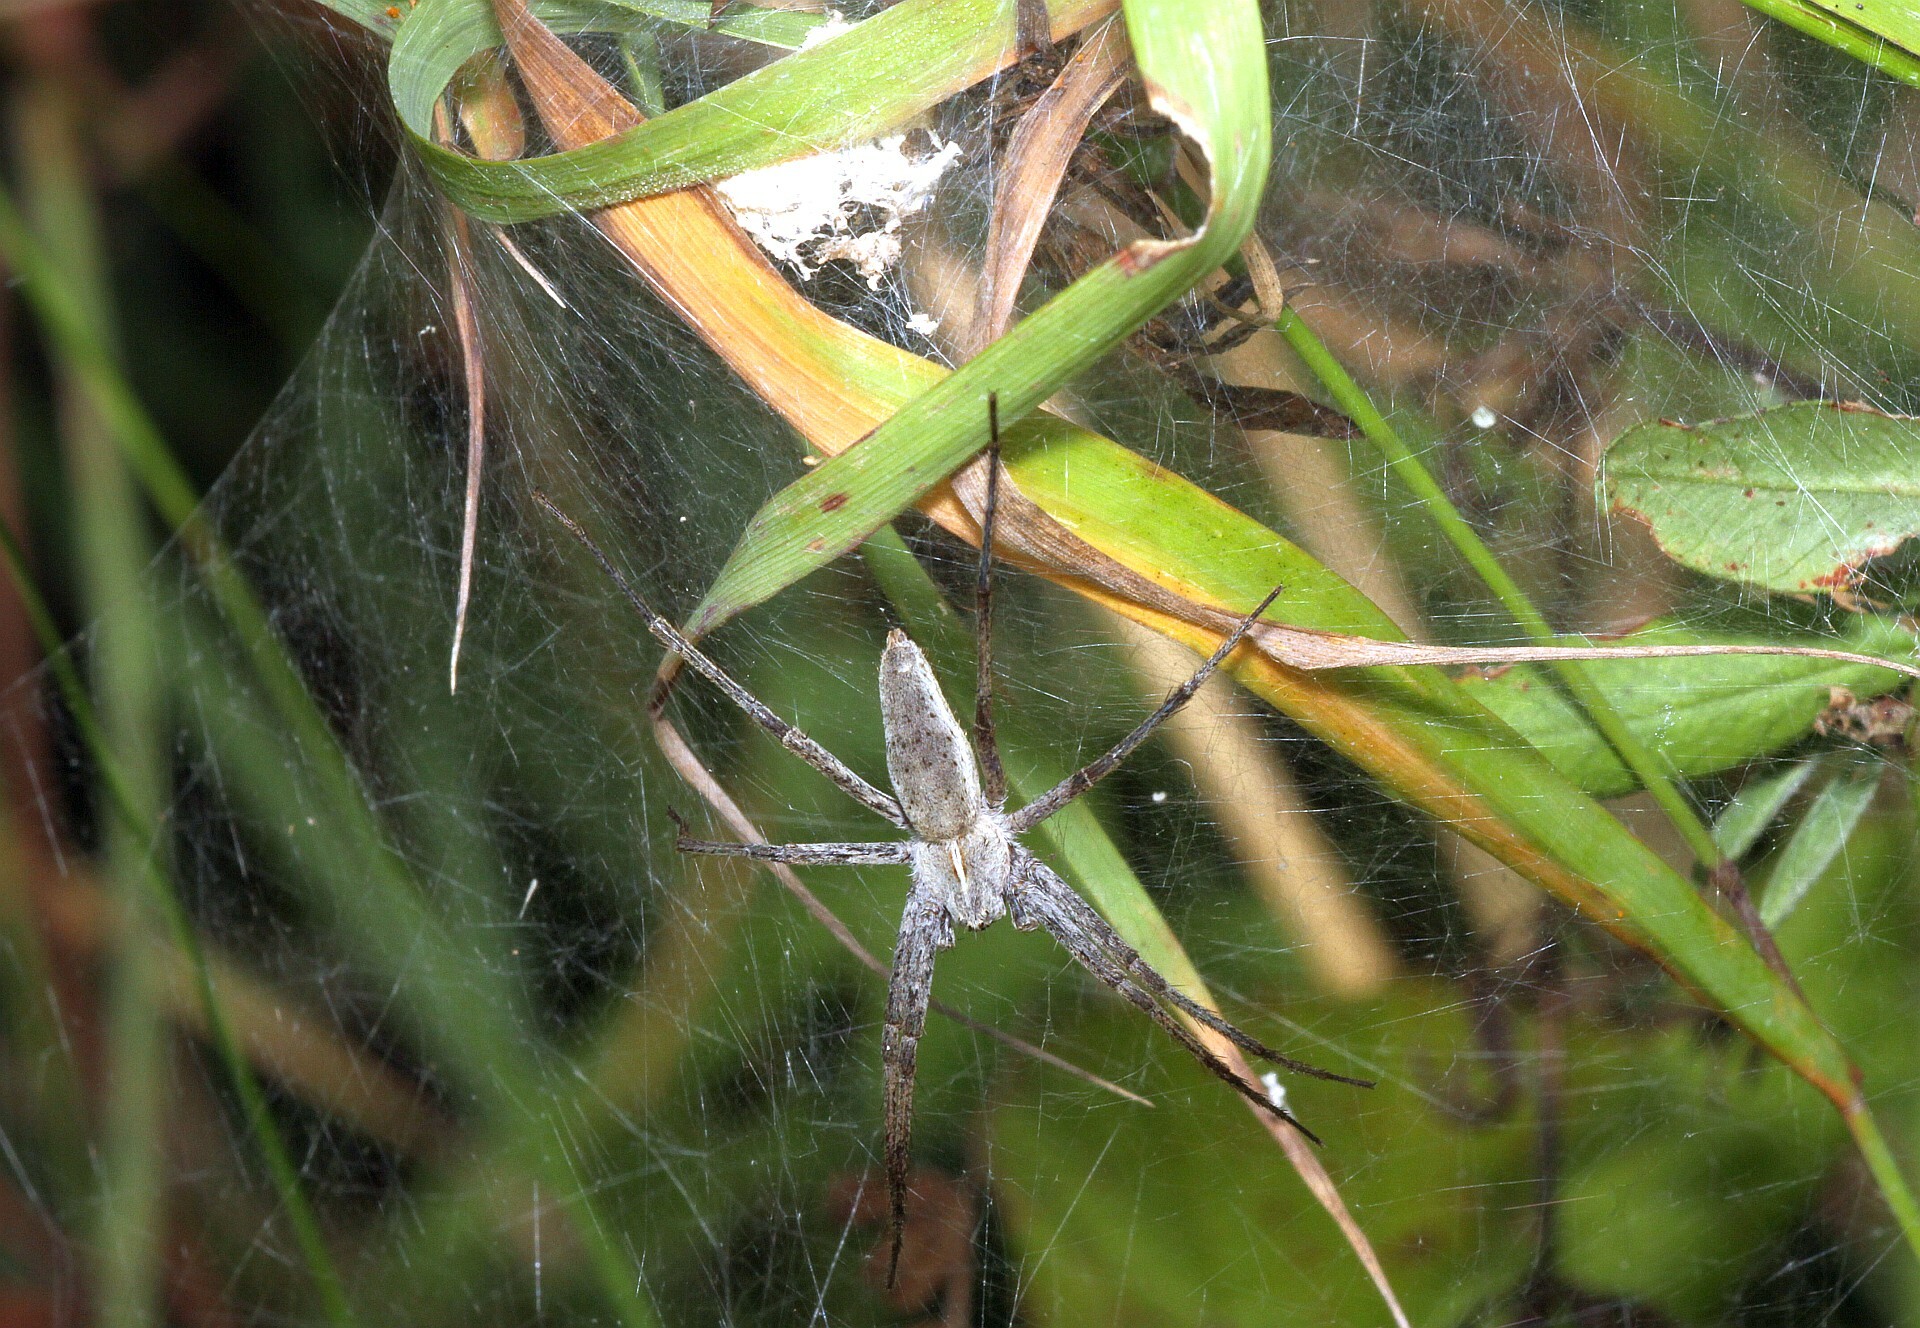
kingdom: Animalia
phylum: Arthropoda
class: Arachnida
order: Araneae
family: Pisauridae
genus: Pisaura
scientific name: Pisaura mirabilis
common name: Tent spider
